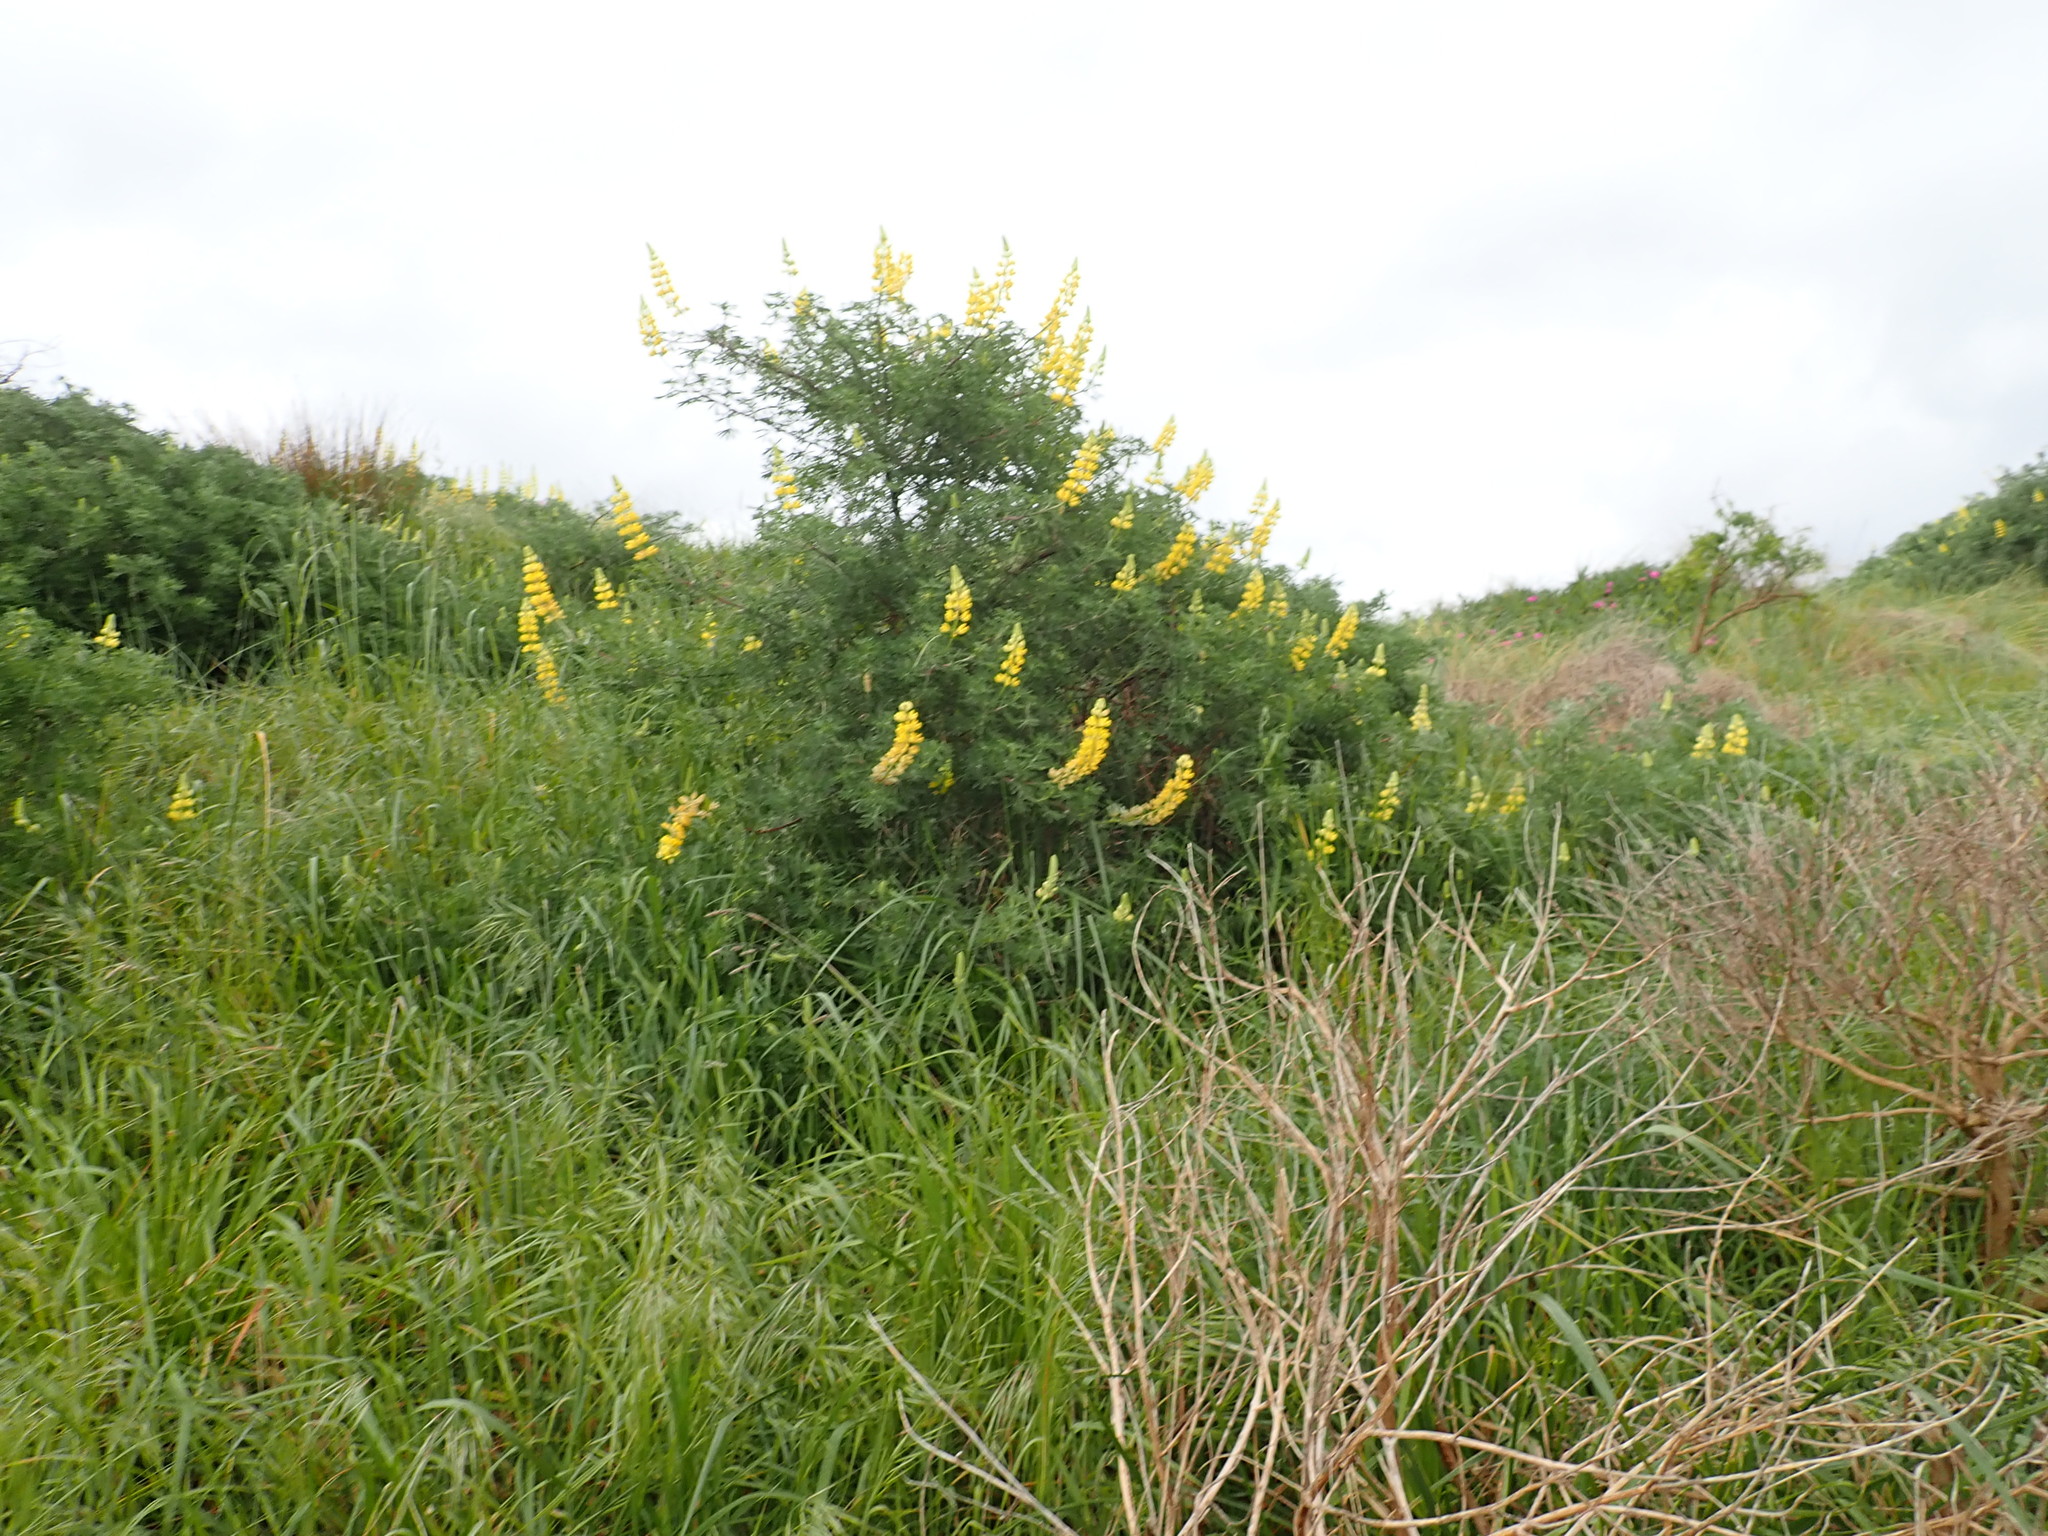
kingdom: Plantae
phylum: Tracheophyta
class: Magnoliopsida
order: Fabales
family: Fabaceae
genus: Lupinus
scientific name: Lupinus arboreus
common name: Yellow bush lupine
